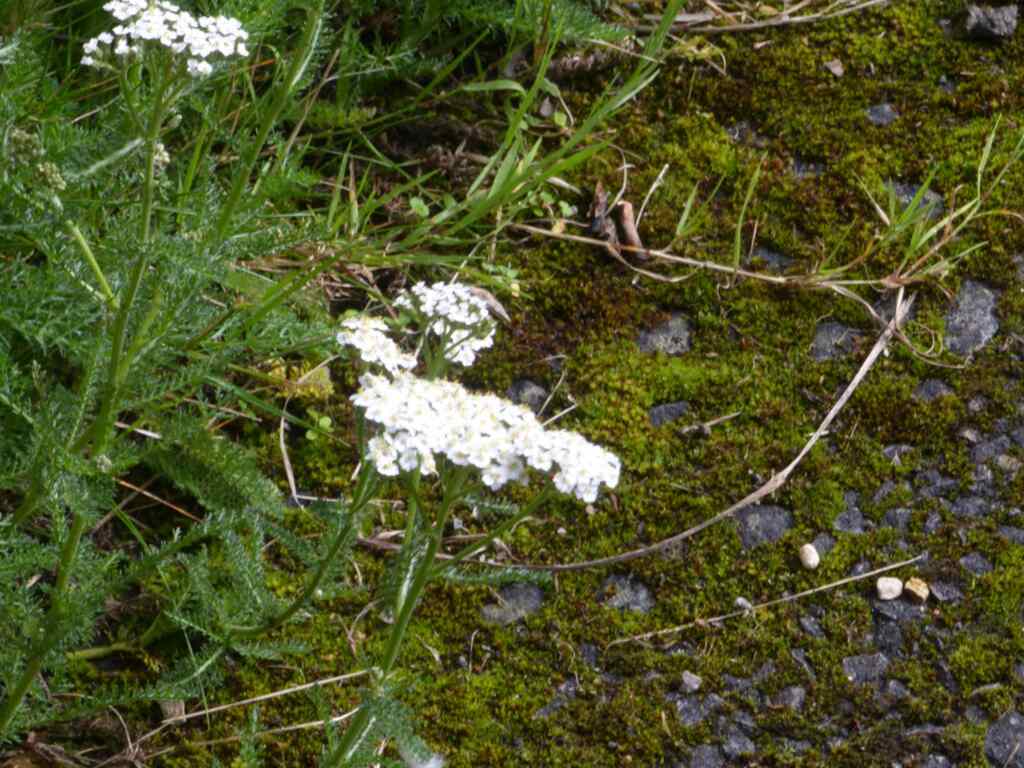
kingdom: Plantae
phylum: Tracheophyta
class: Magnoliopsida
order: Asterales
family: Asteraceae
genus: Achillea
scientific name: Achillea millefolium
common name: Yarrow
